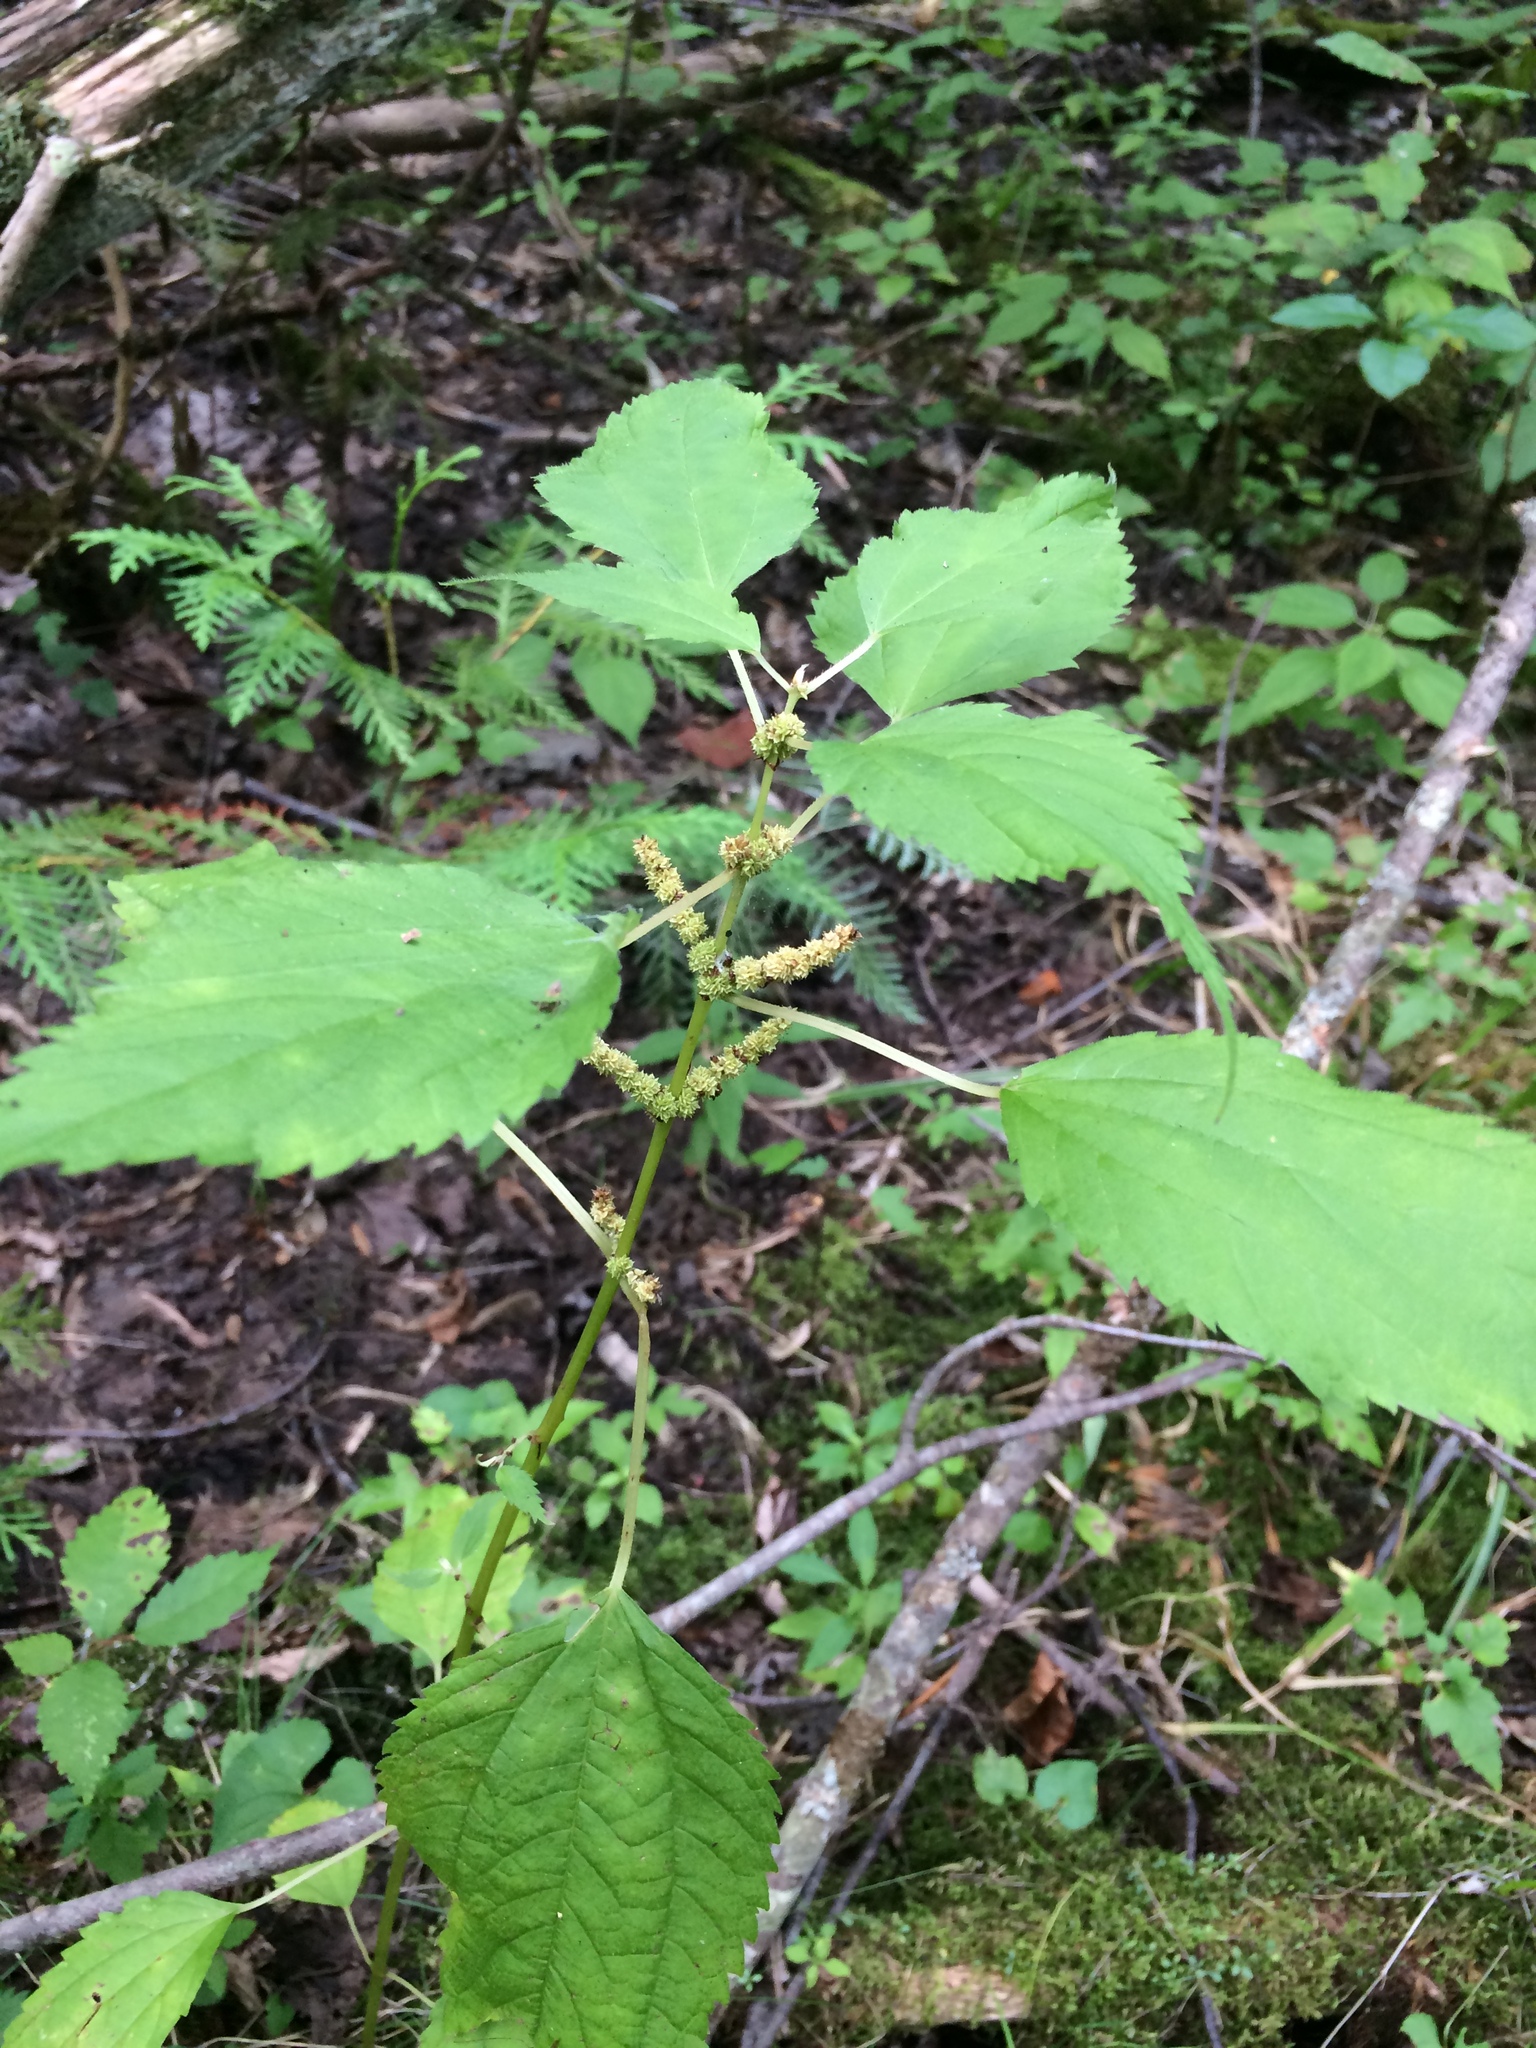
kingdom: Plantae
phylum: Tracheophyta
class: Magnoliopsida
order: Rosales
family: Urticaceae
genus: Boehmeria
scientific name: Boehmeria cylindrica
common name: Bog-hemp
